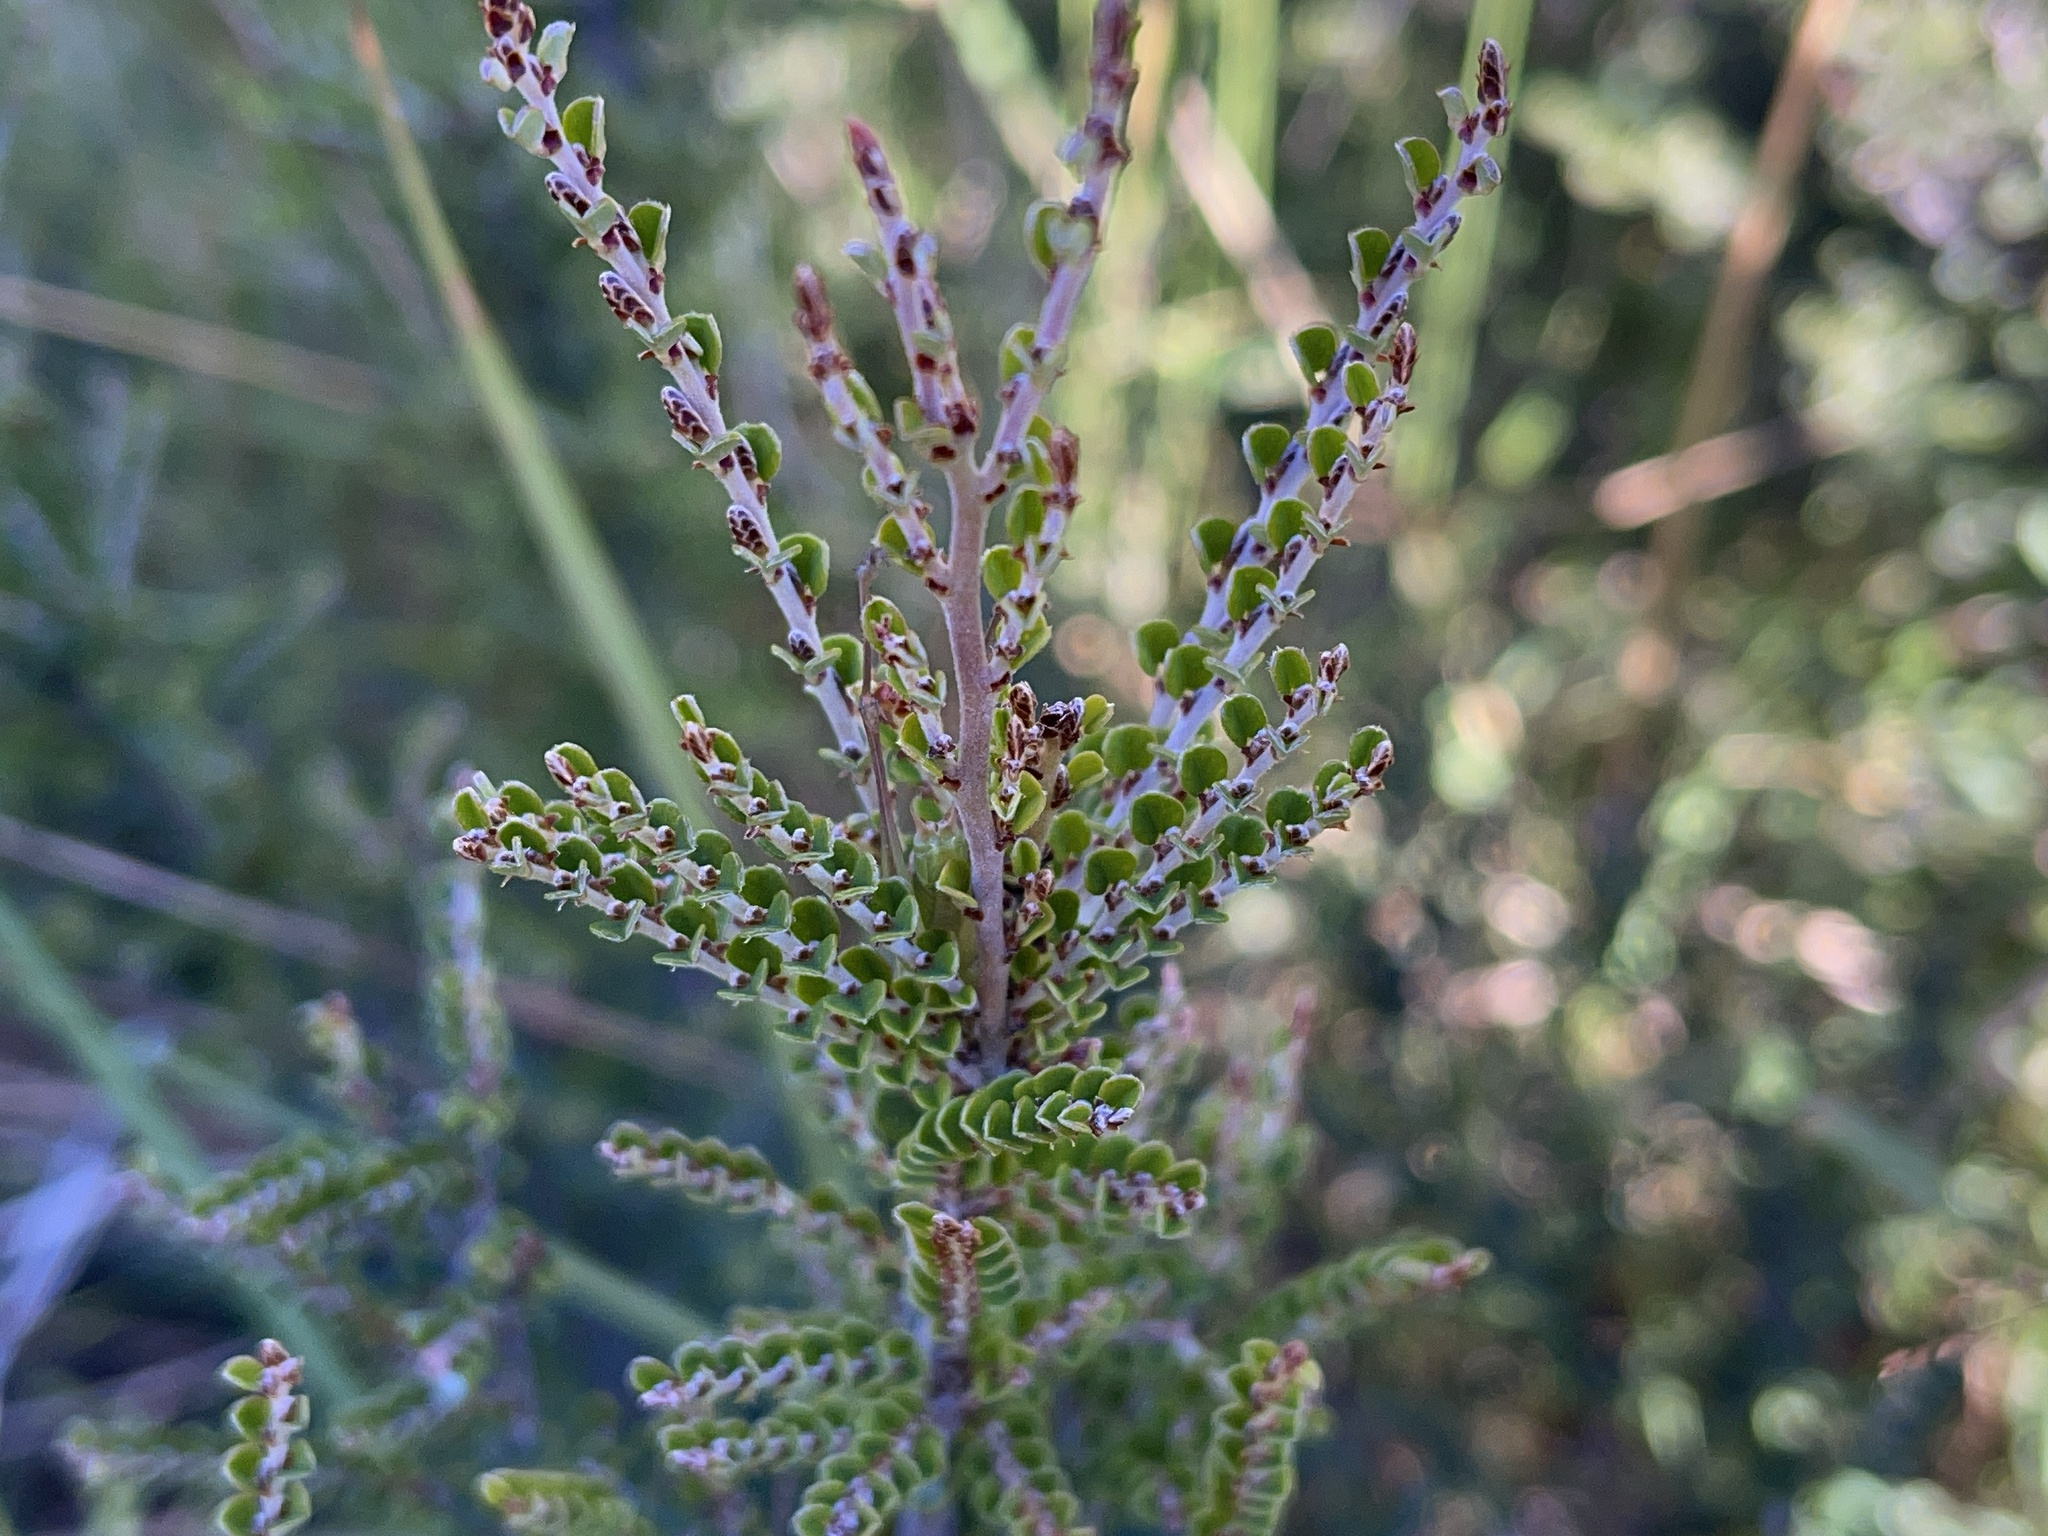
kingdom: Plantae
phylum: Tracheophyta
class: Magnoliopsida
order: Fabales
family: Fabaceae
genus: Bossiaea
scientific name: Bossiaea sericea
